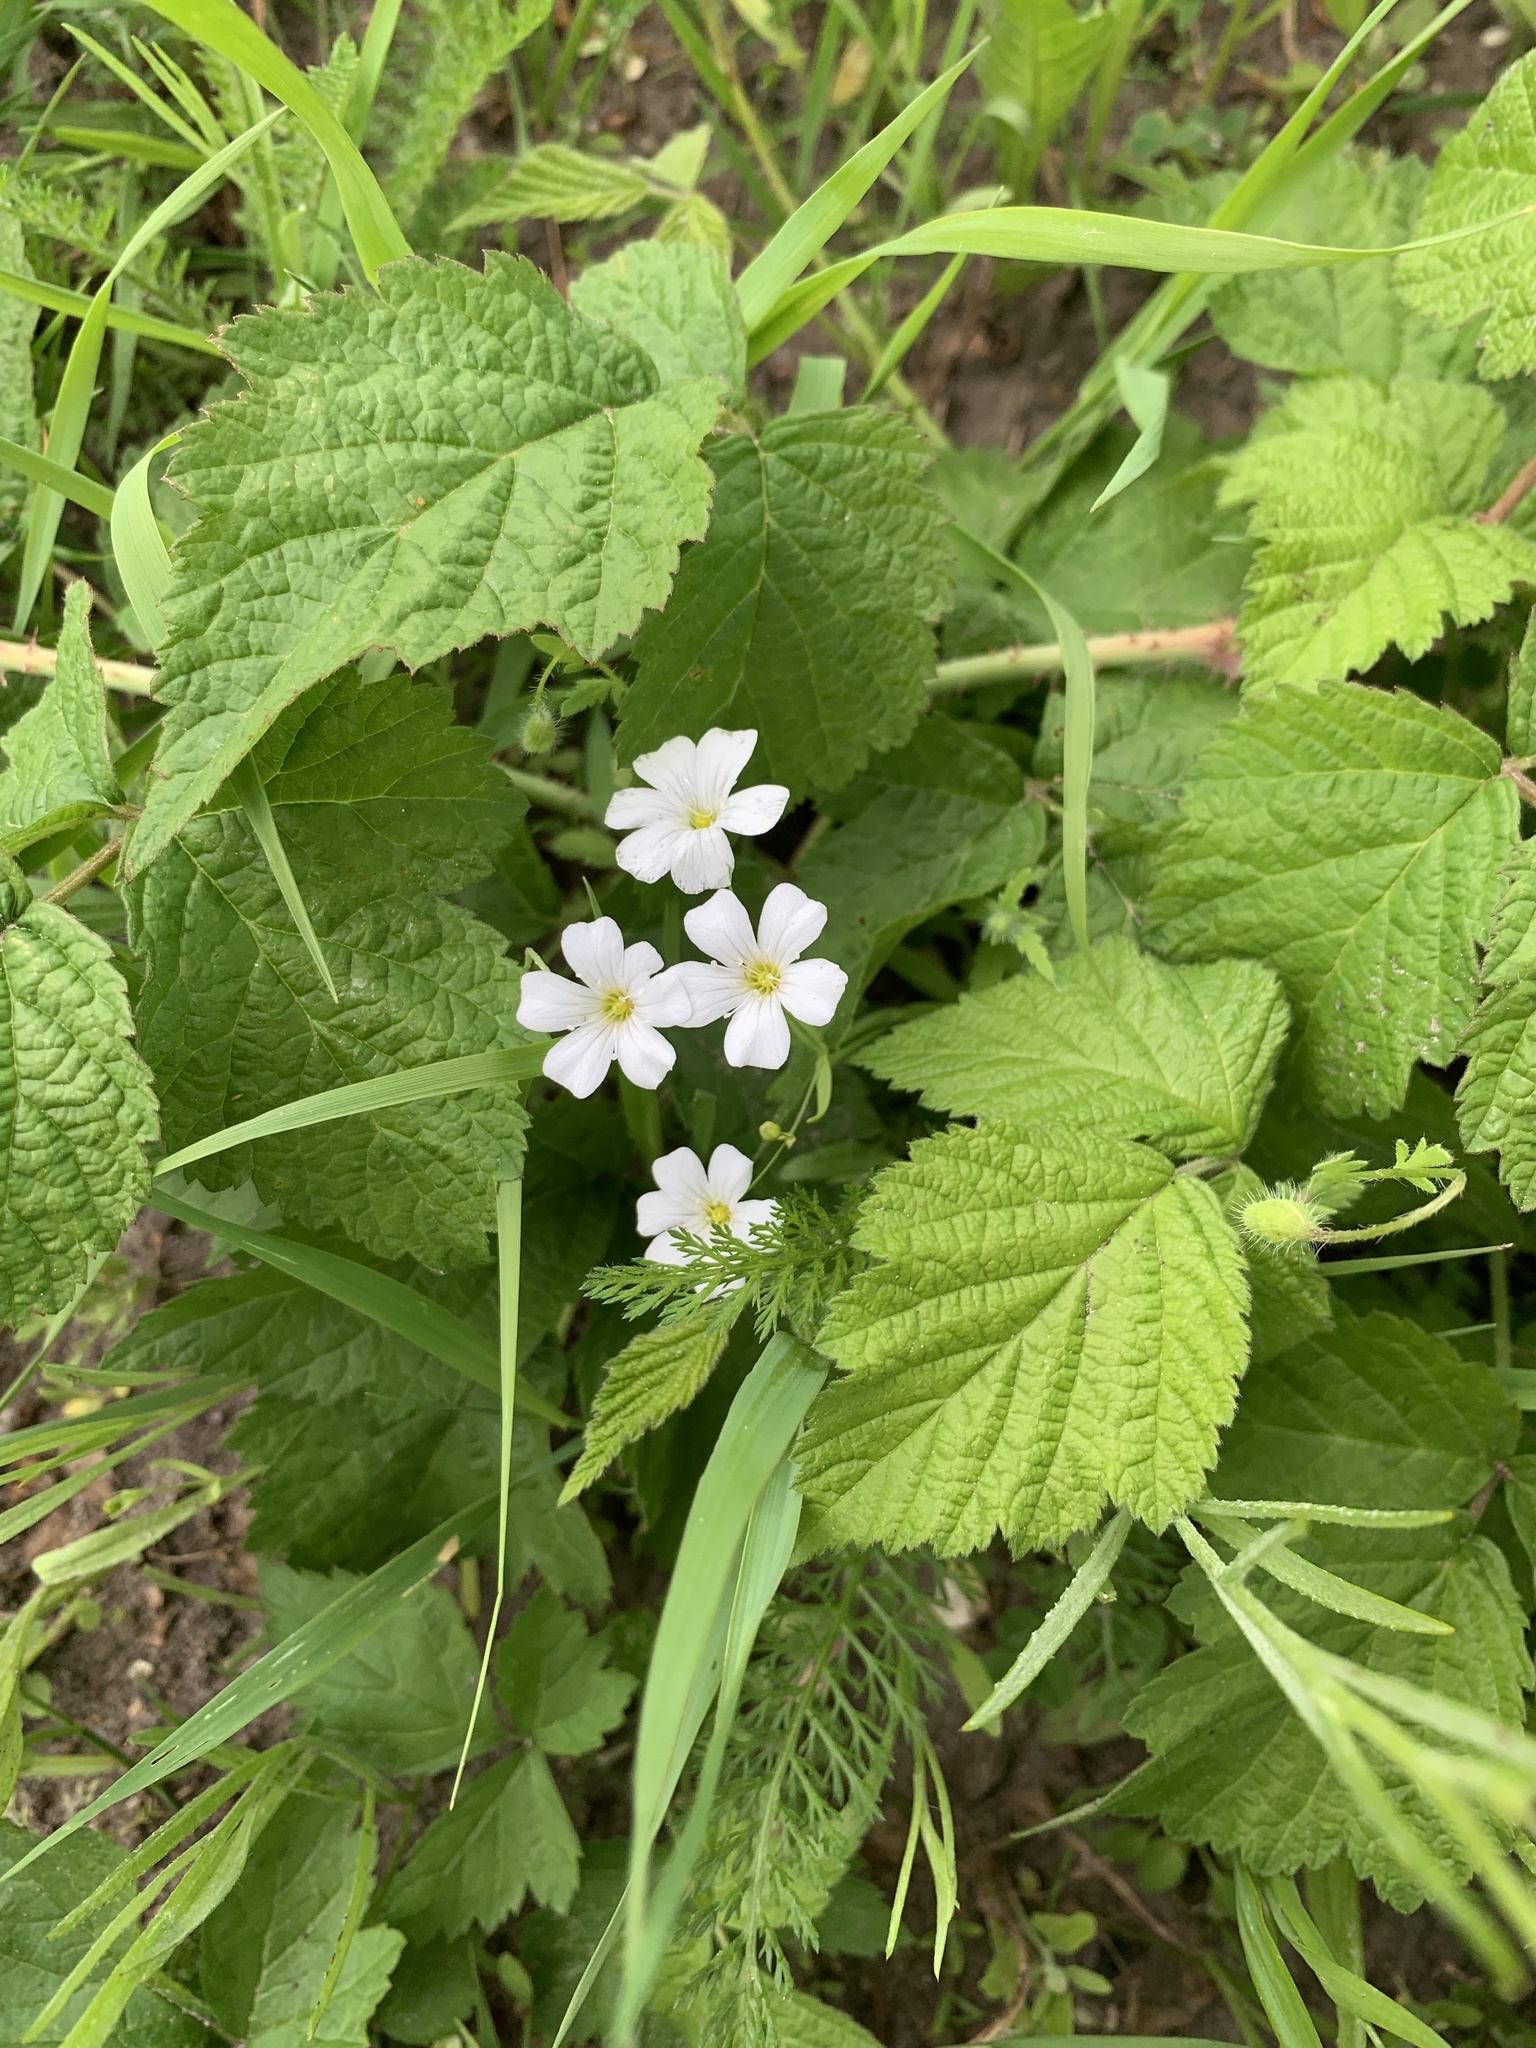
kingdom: Plantae
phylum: Tracheophyta
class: Magnoliopsida
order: Caryophyllales
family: Caryophyllaceae
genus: Rabelera
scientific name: Rabelera holostea
